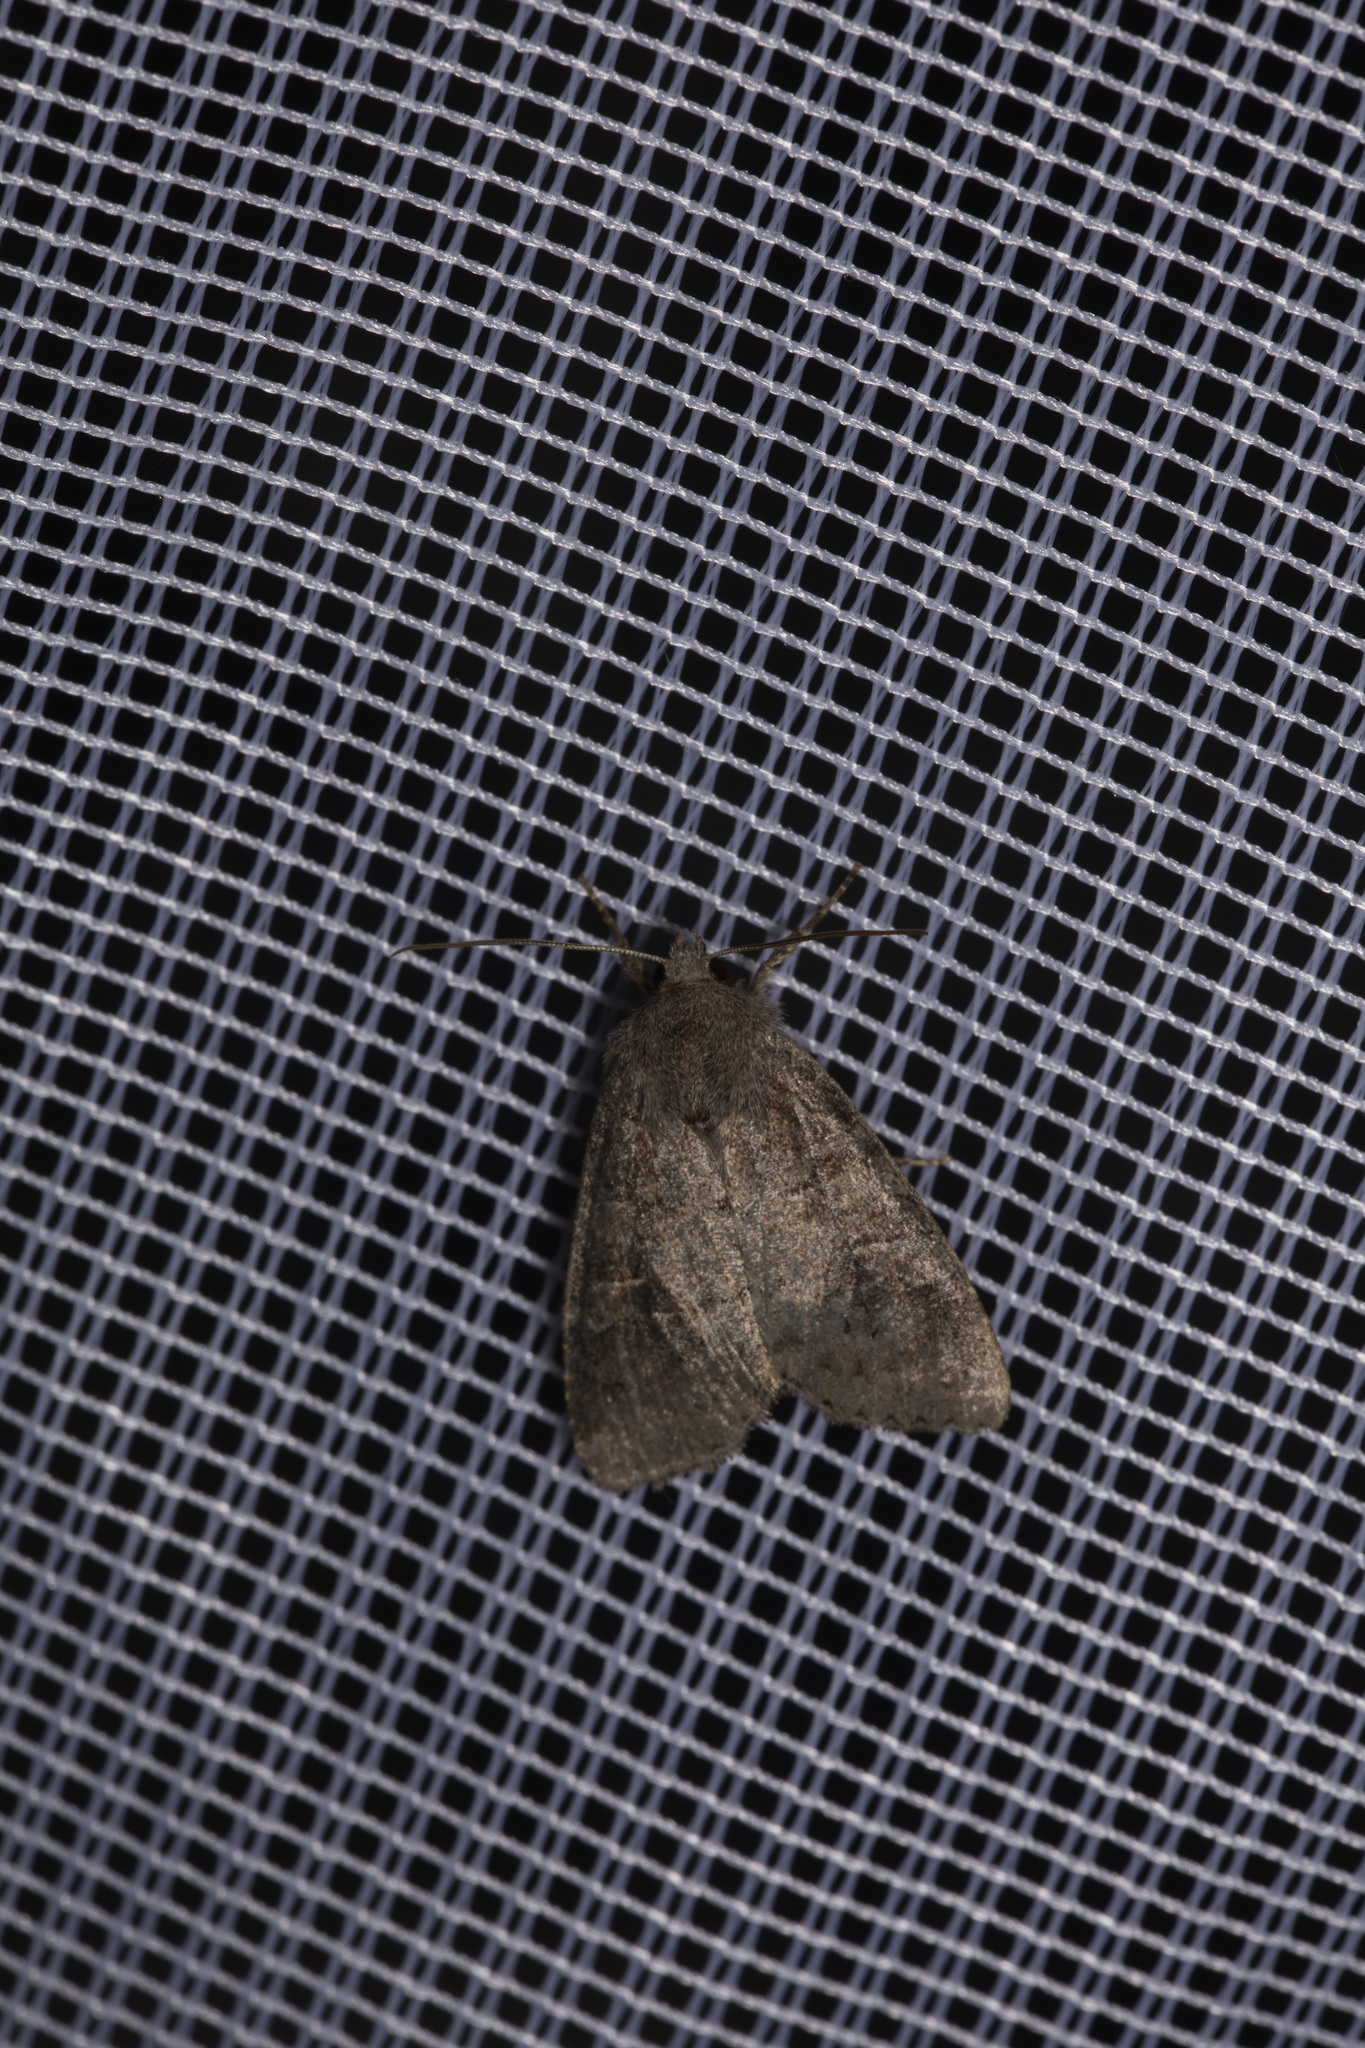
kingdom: Animalia
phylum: Arthropoda
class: Insecta
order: Lepidoptera
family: Noctuidae
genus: Parastichtis
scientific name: Parastichtis suspecta
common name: Suspected
